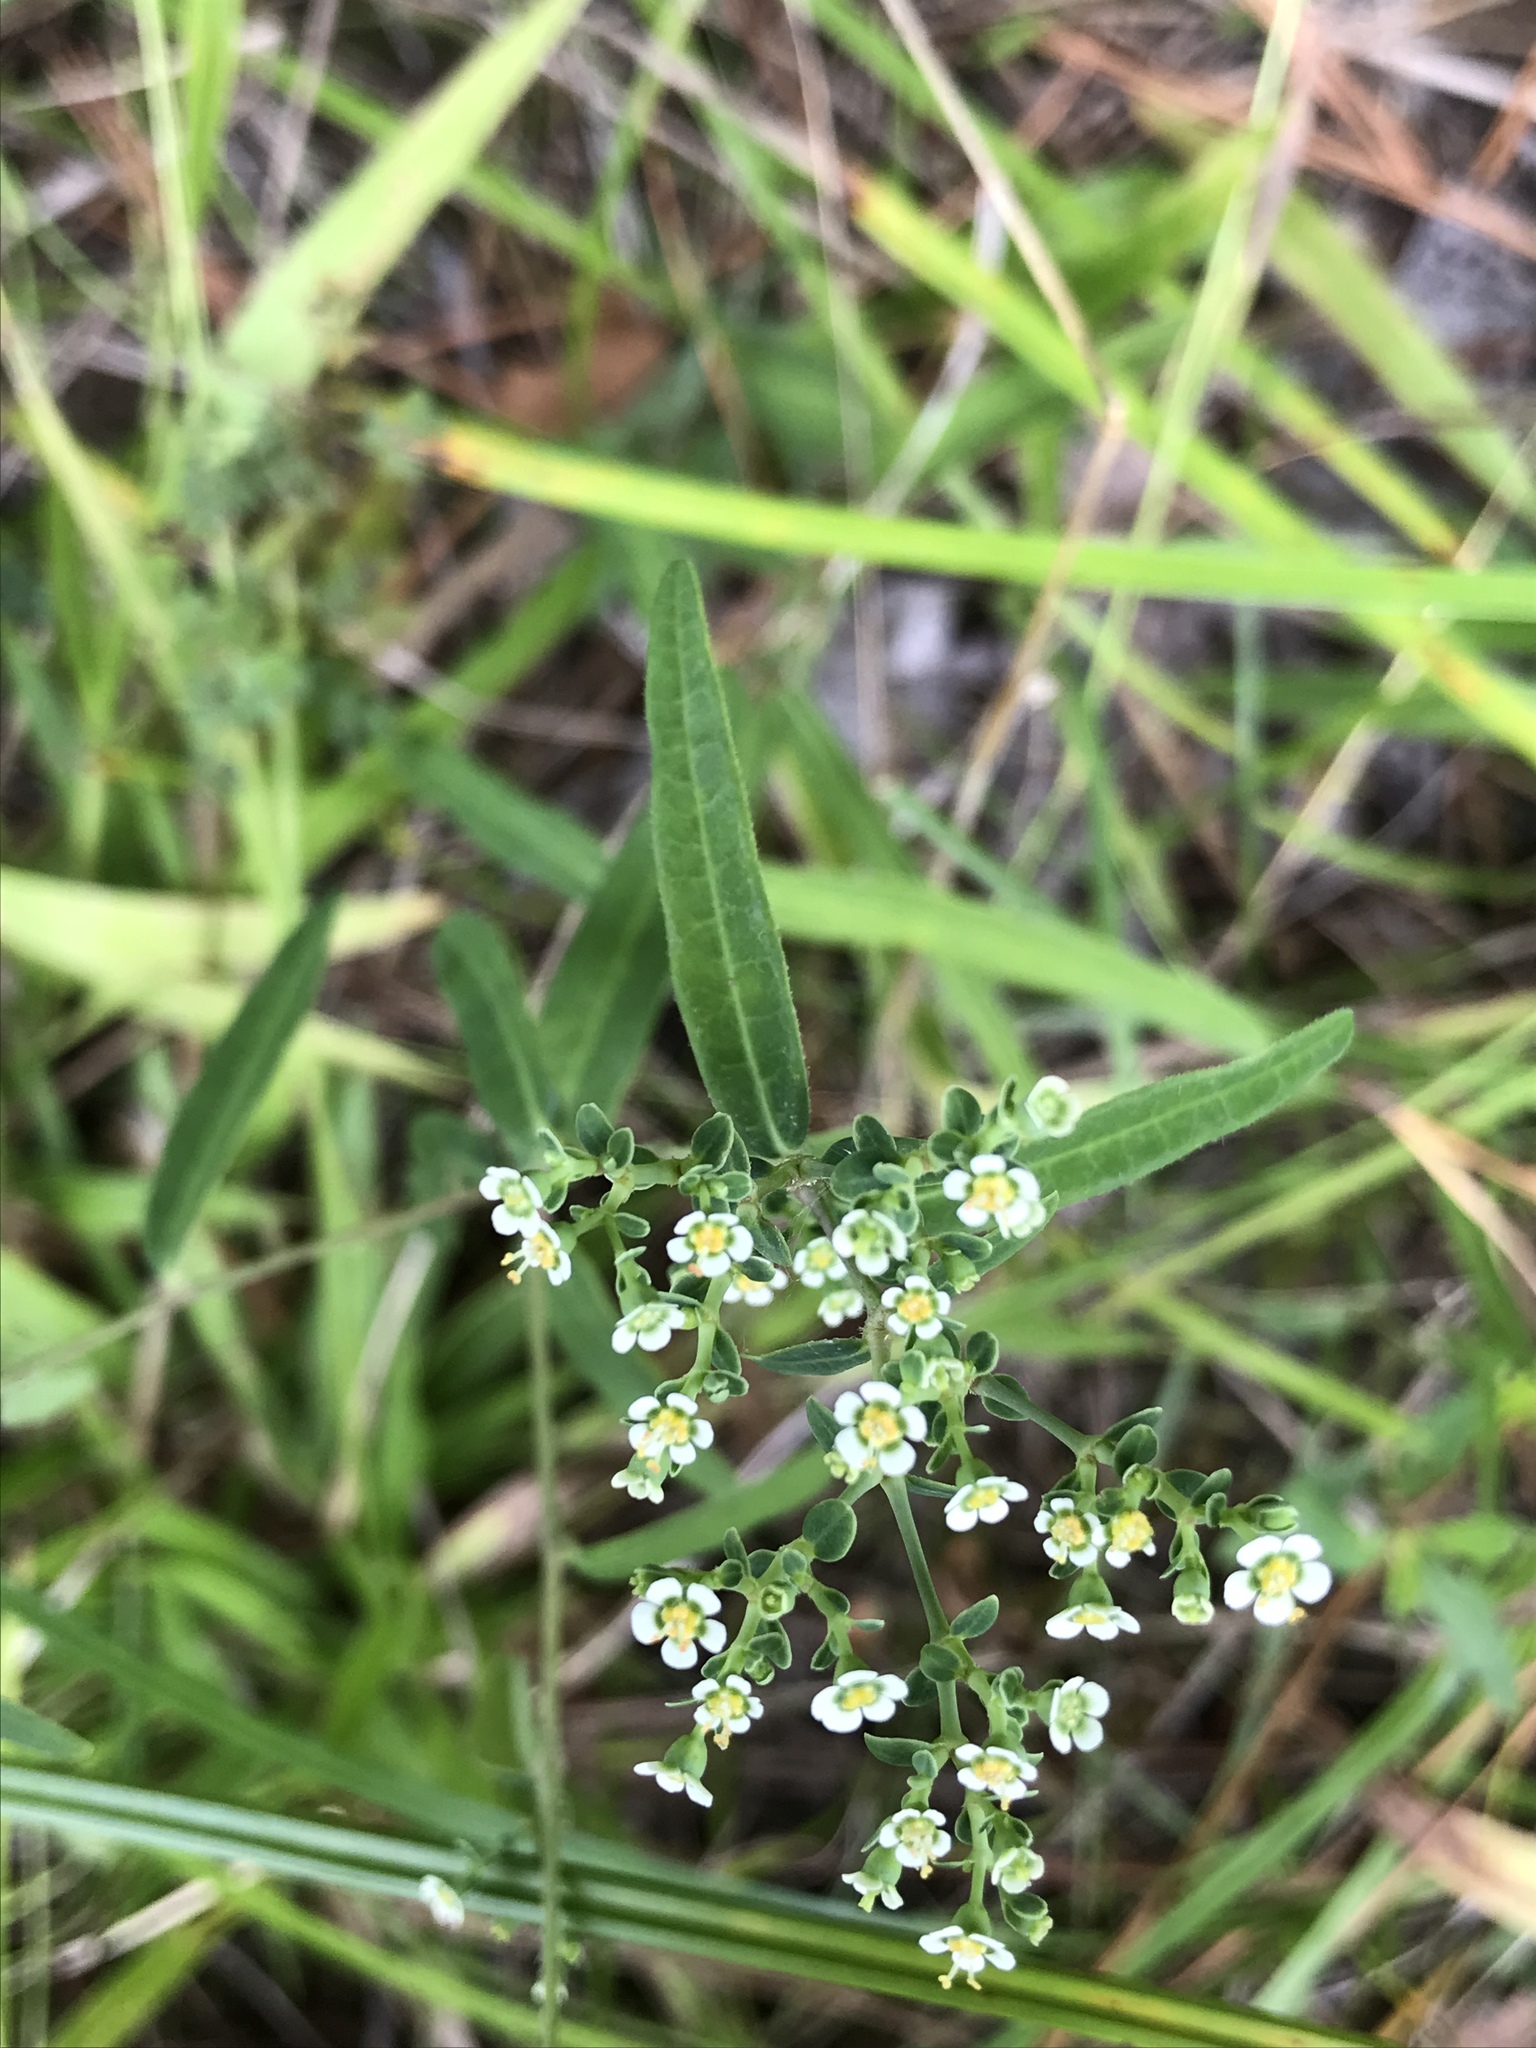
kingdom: Plantae
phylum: Tracheophyta
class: Magnoliopsida
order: Malpighiales
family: Euphorbiaceae
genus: Euphorbia
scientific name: Euphorbia corollata
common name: Flowering spurge
